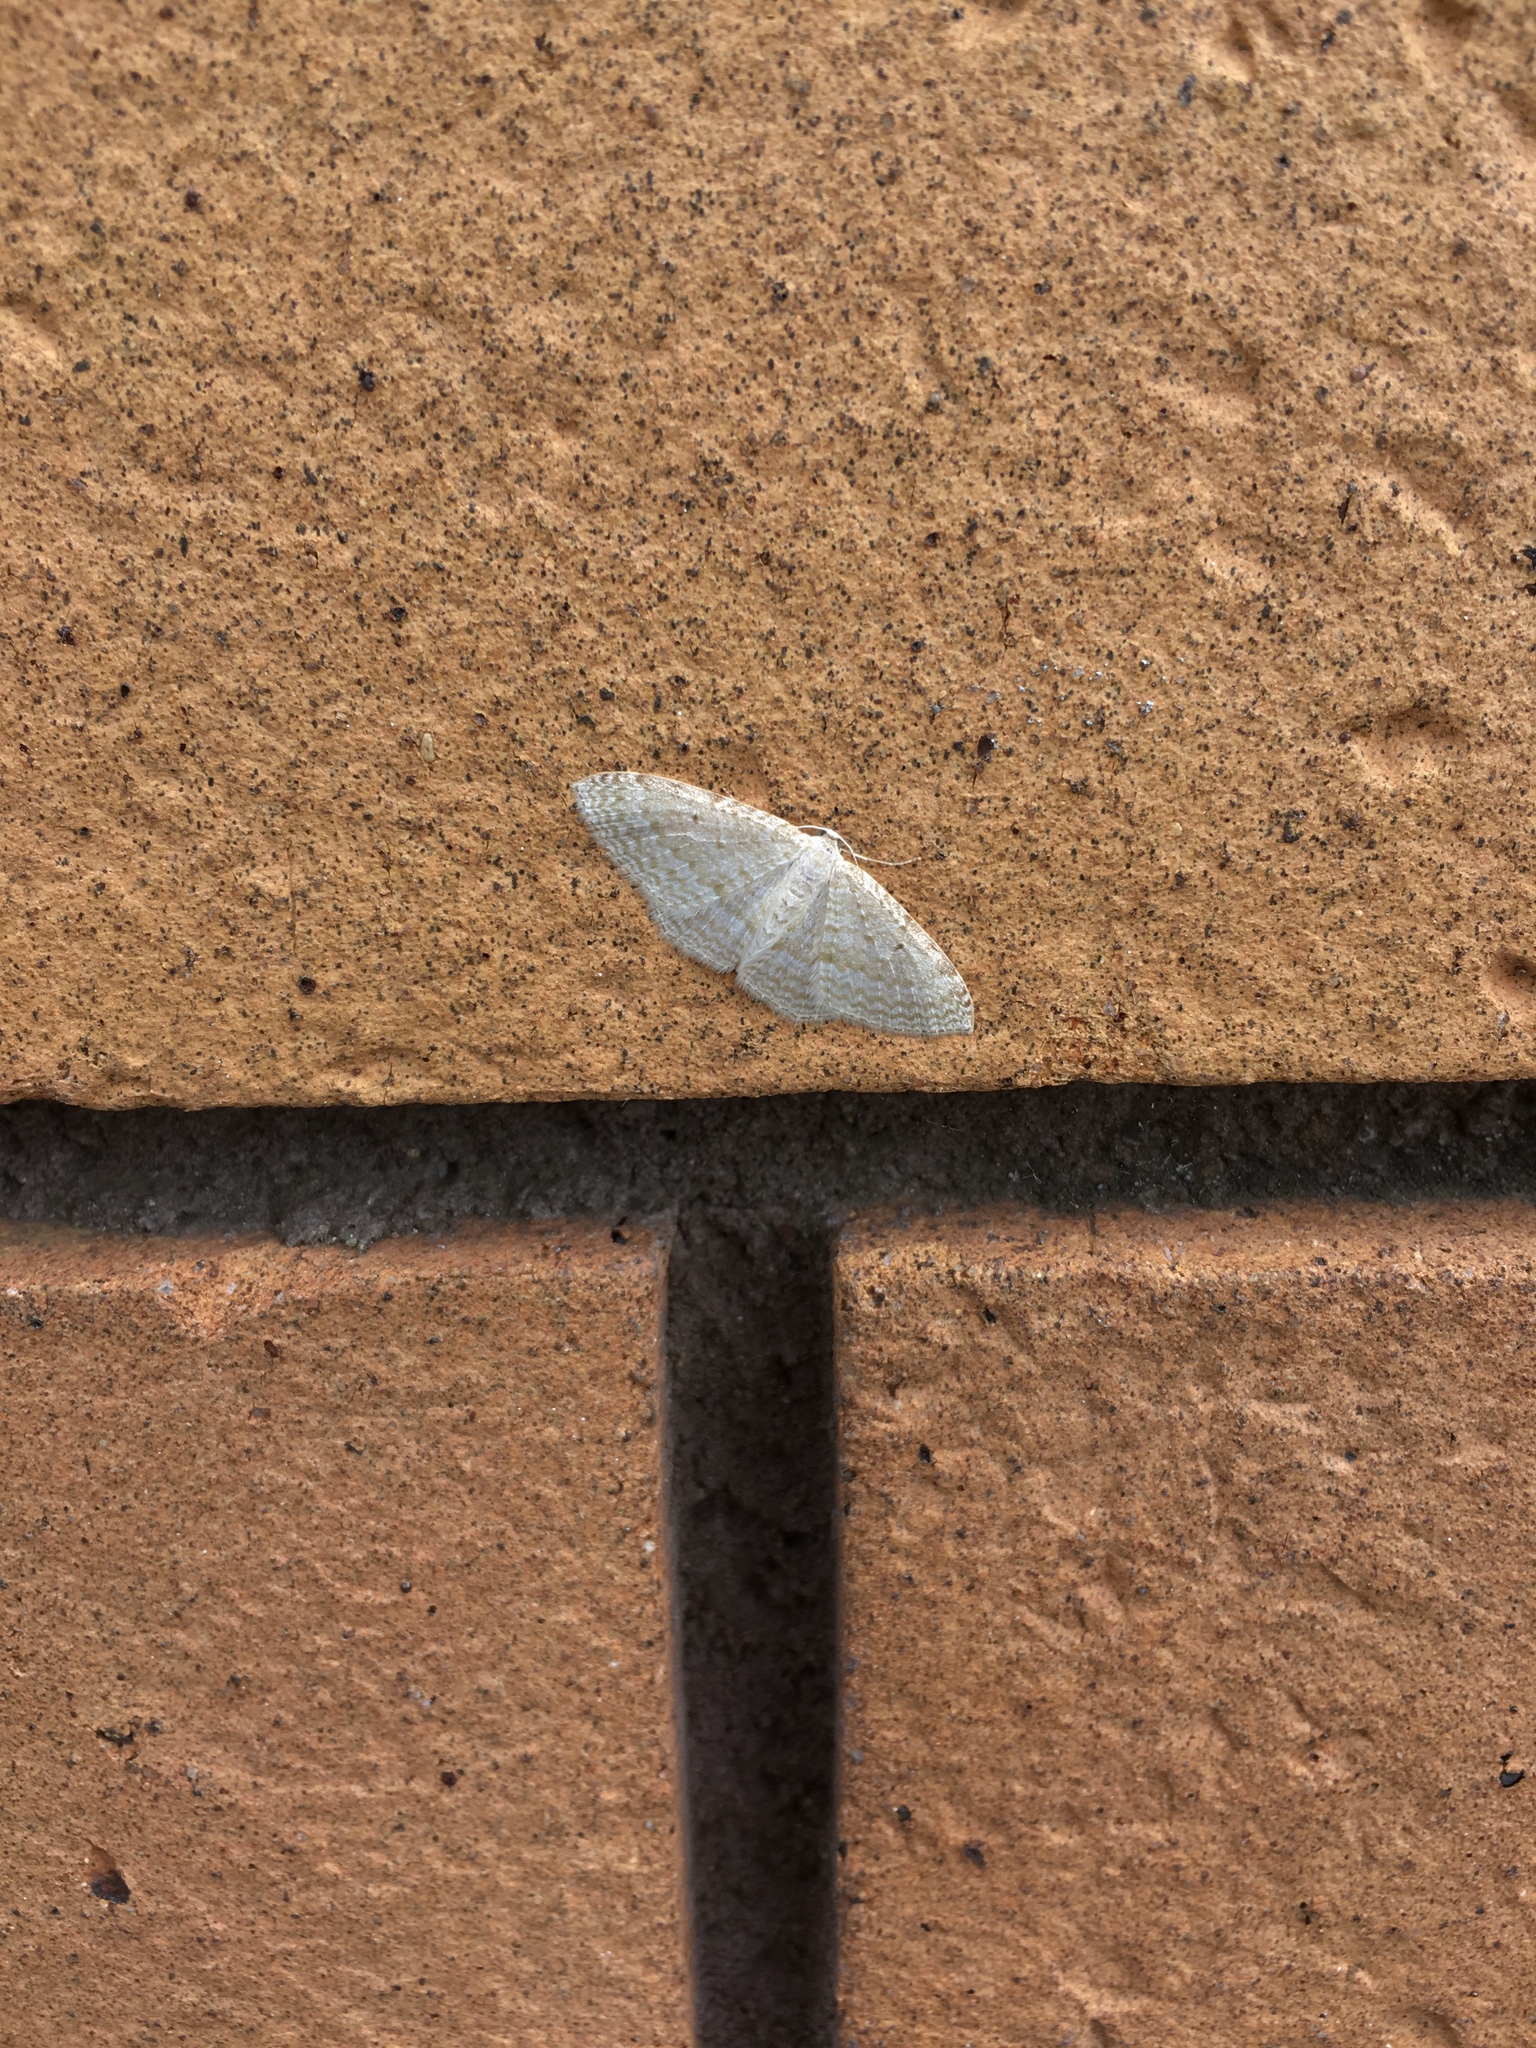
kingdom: Animalia
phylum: Arthropoda
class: Insecta
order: Lepidoptera
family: Geometridae
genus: Poecilasthena
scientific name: Poecilasthena pulchraria
